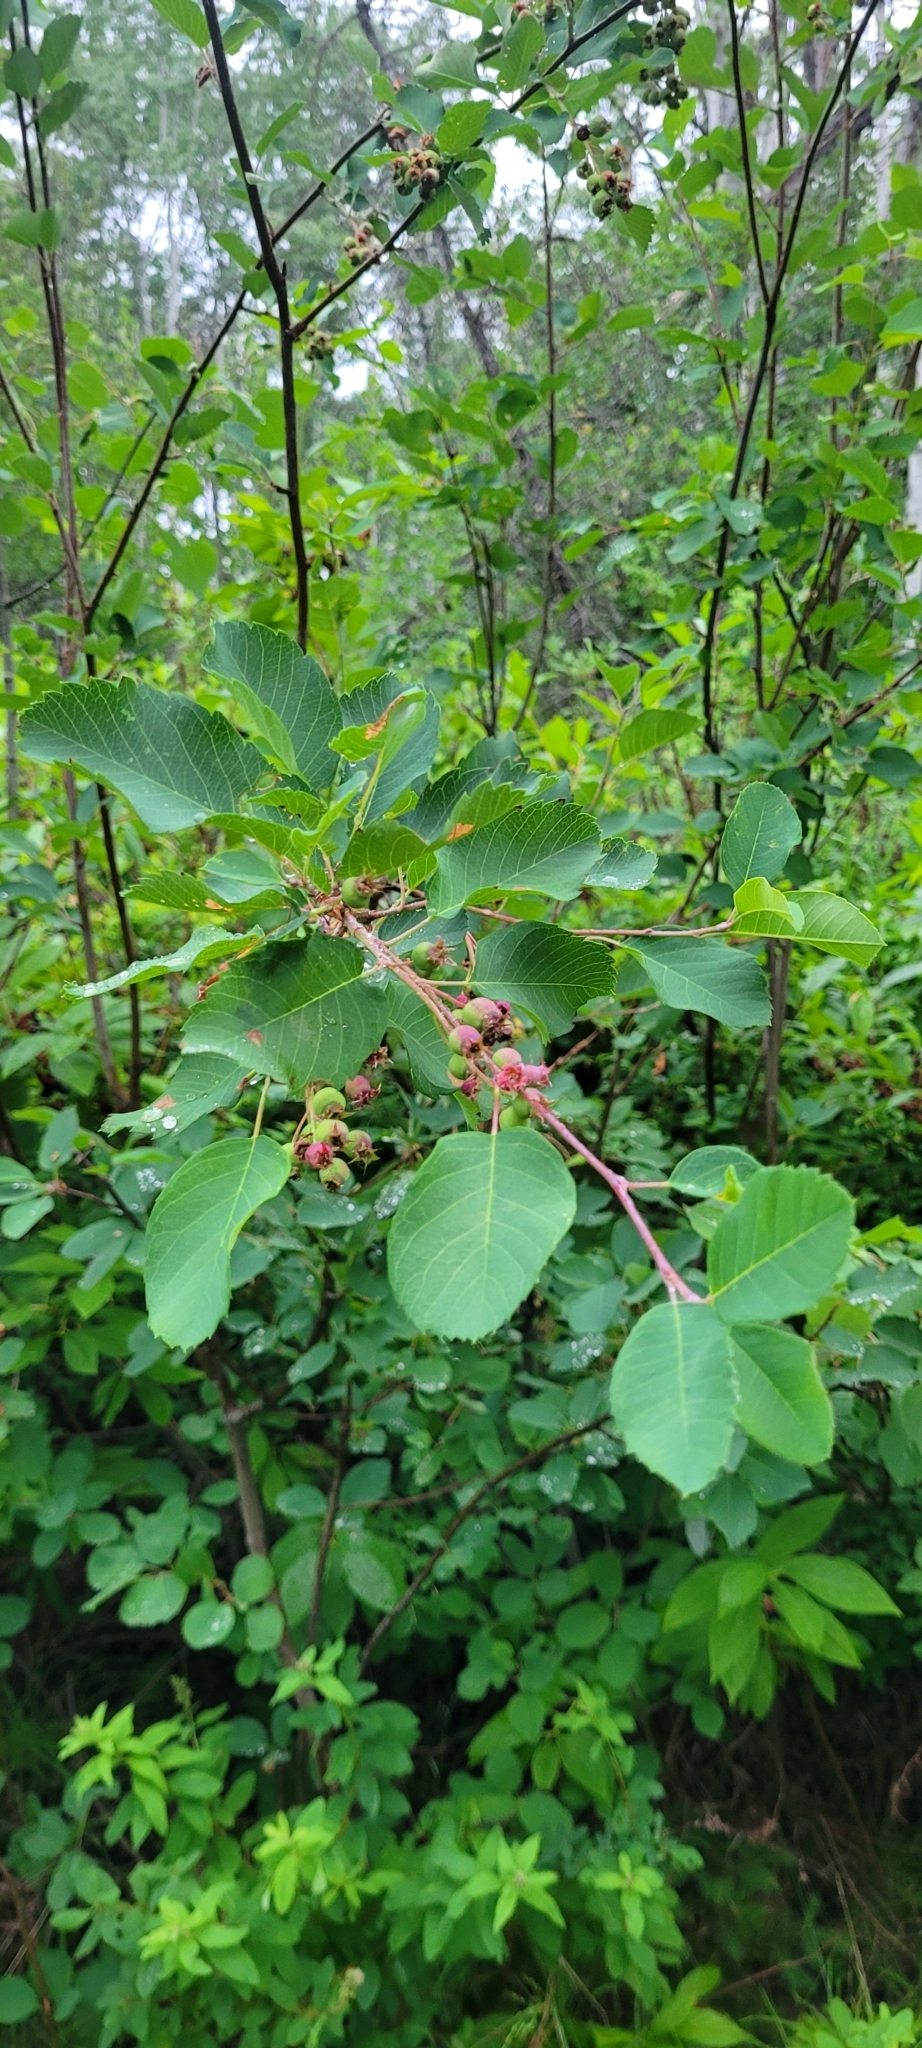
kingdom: Plantae
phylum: Tracheophyta
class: Magnoliopsida
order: Rosales
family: Rosaceae
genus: Amelanchier
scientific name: Amelanchier alnifolia
